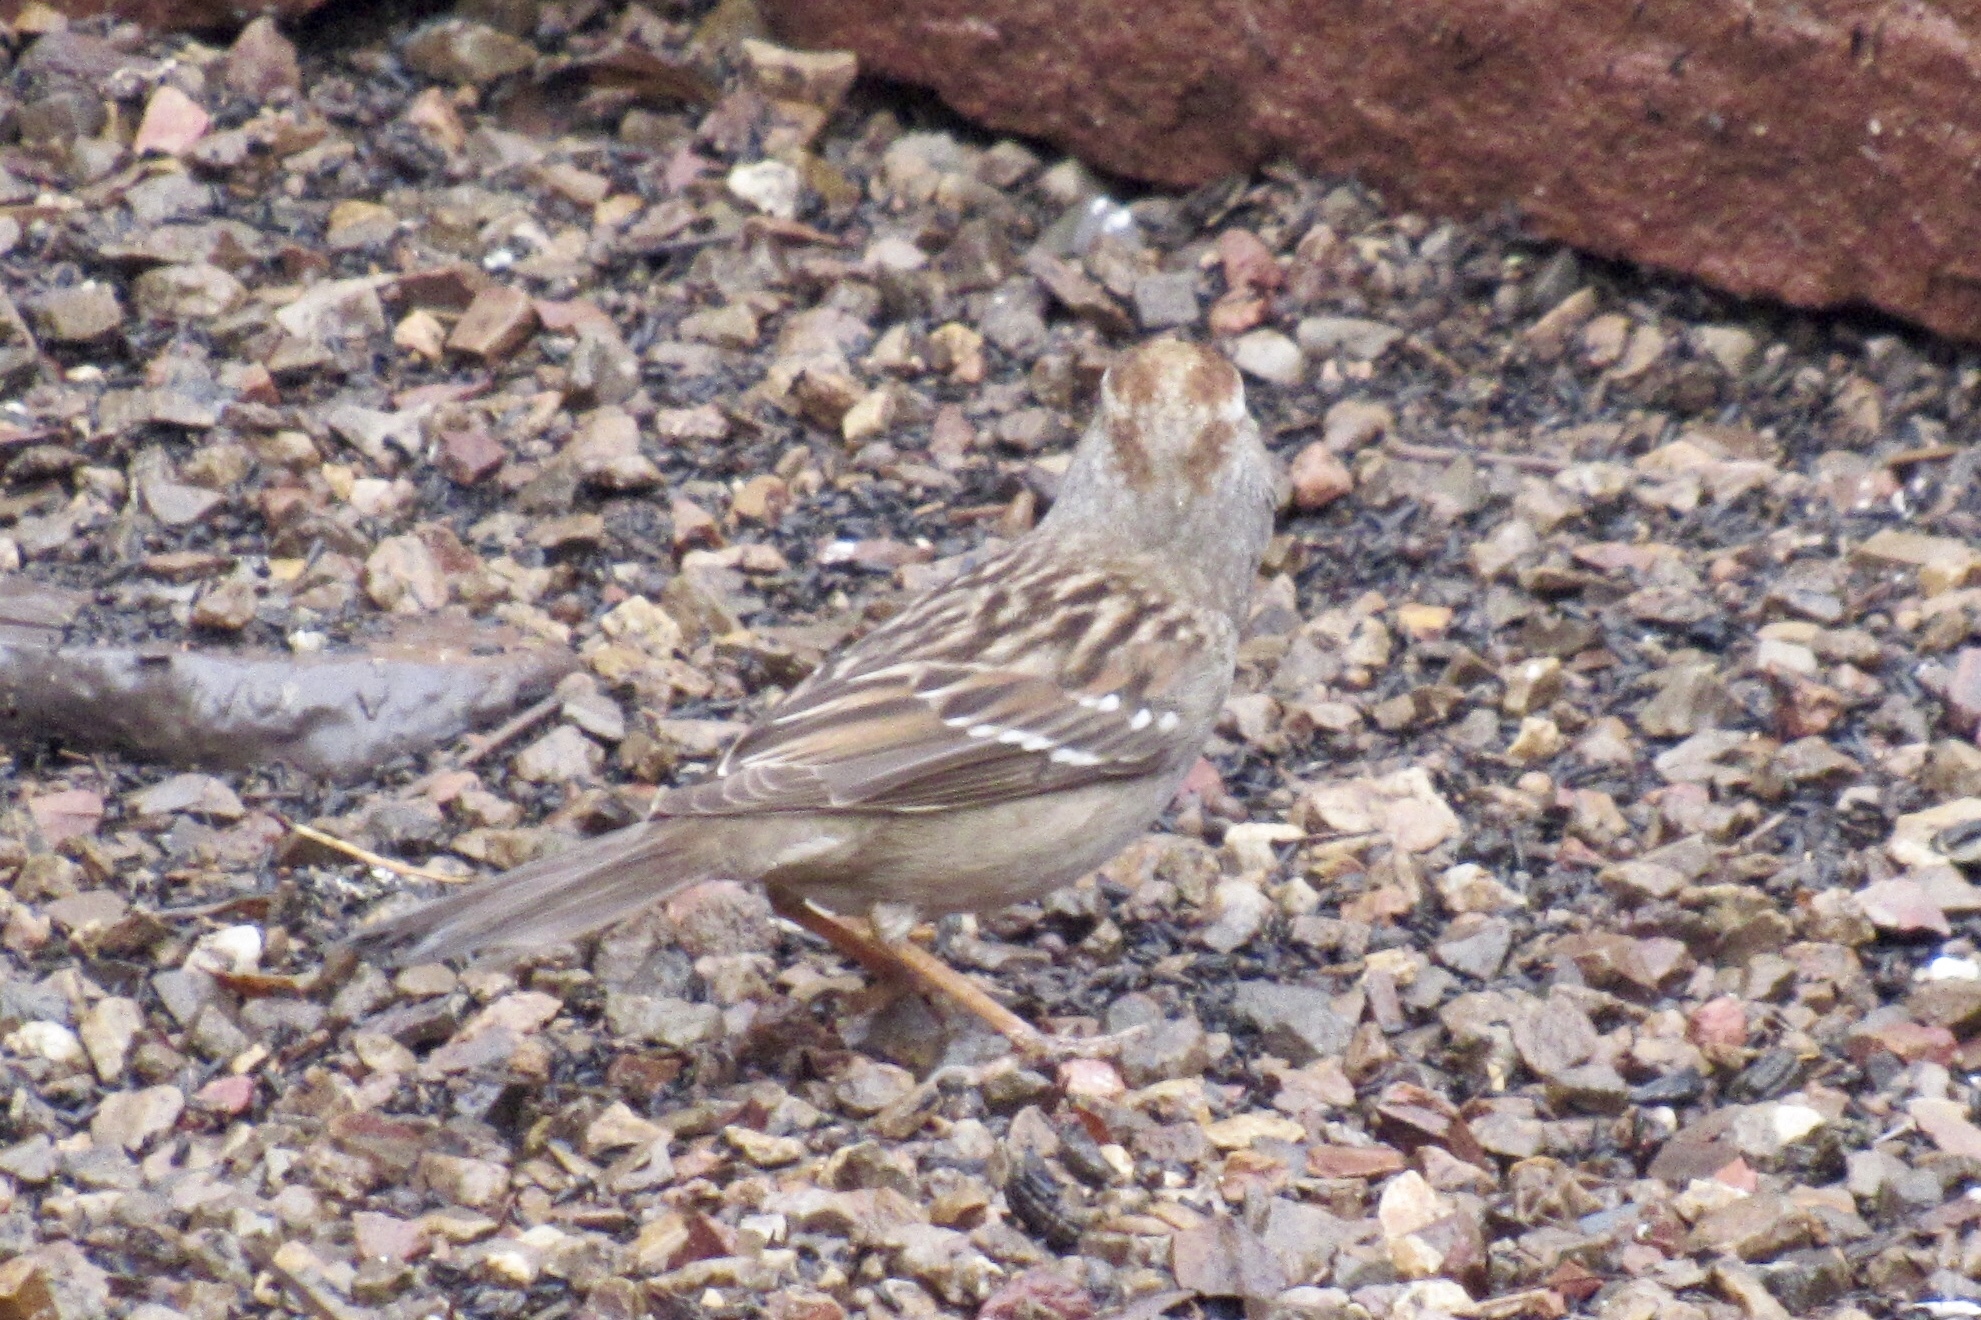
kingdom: Animalia
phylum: Chordata
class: Aves
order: Passeriformes
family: Passerellidae
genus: Zonotrichia
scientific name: Zonotrichia leucophrys
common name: White-crowned sparrow
